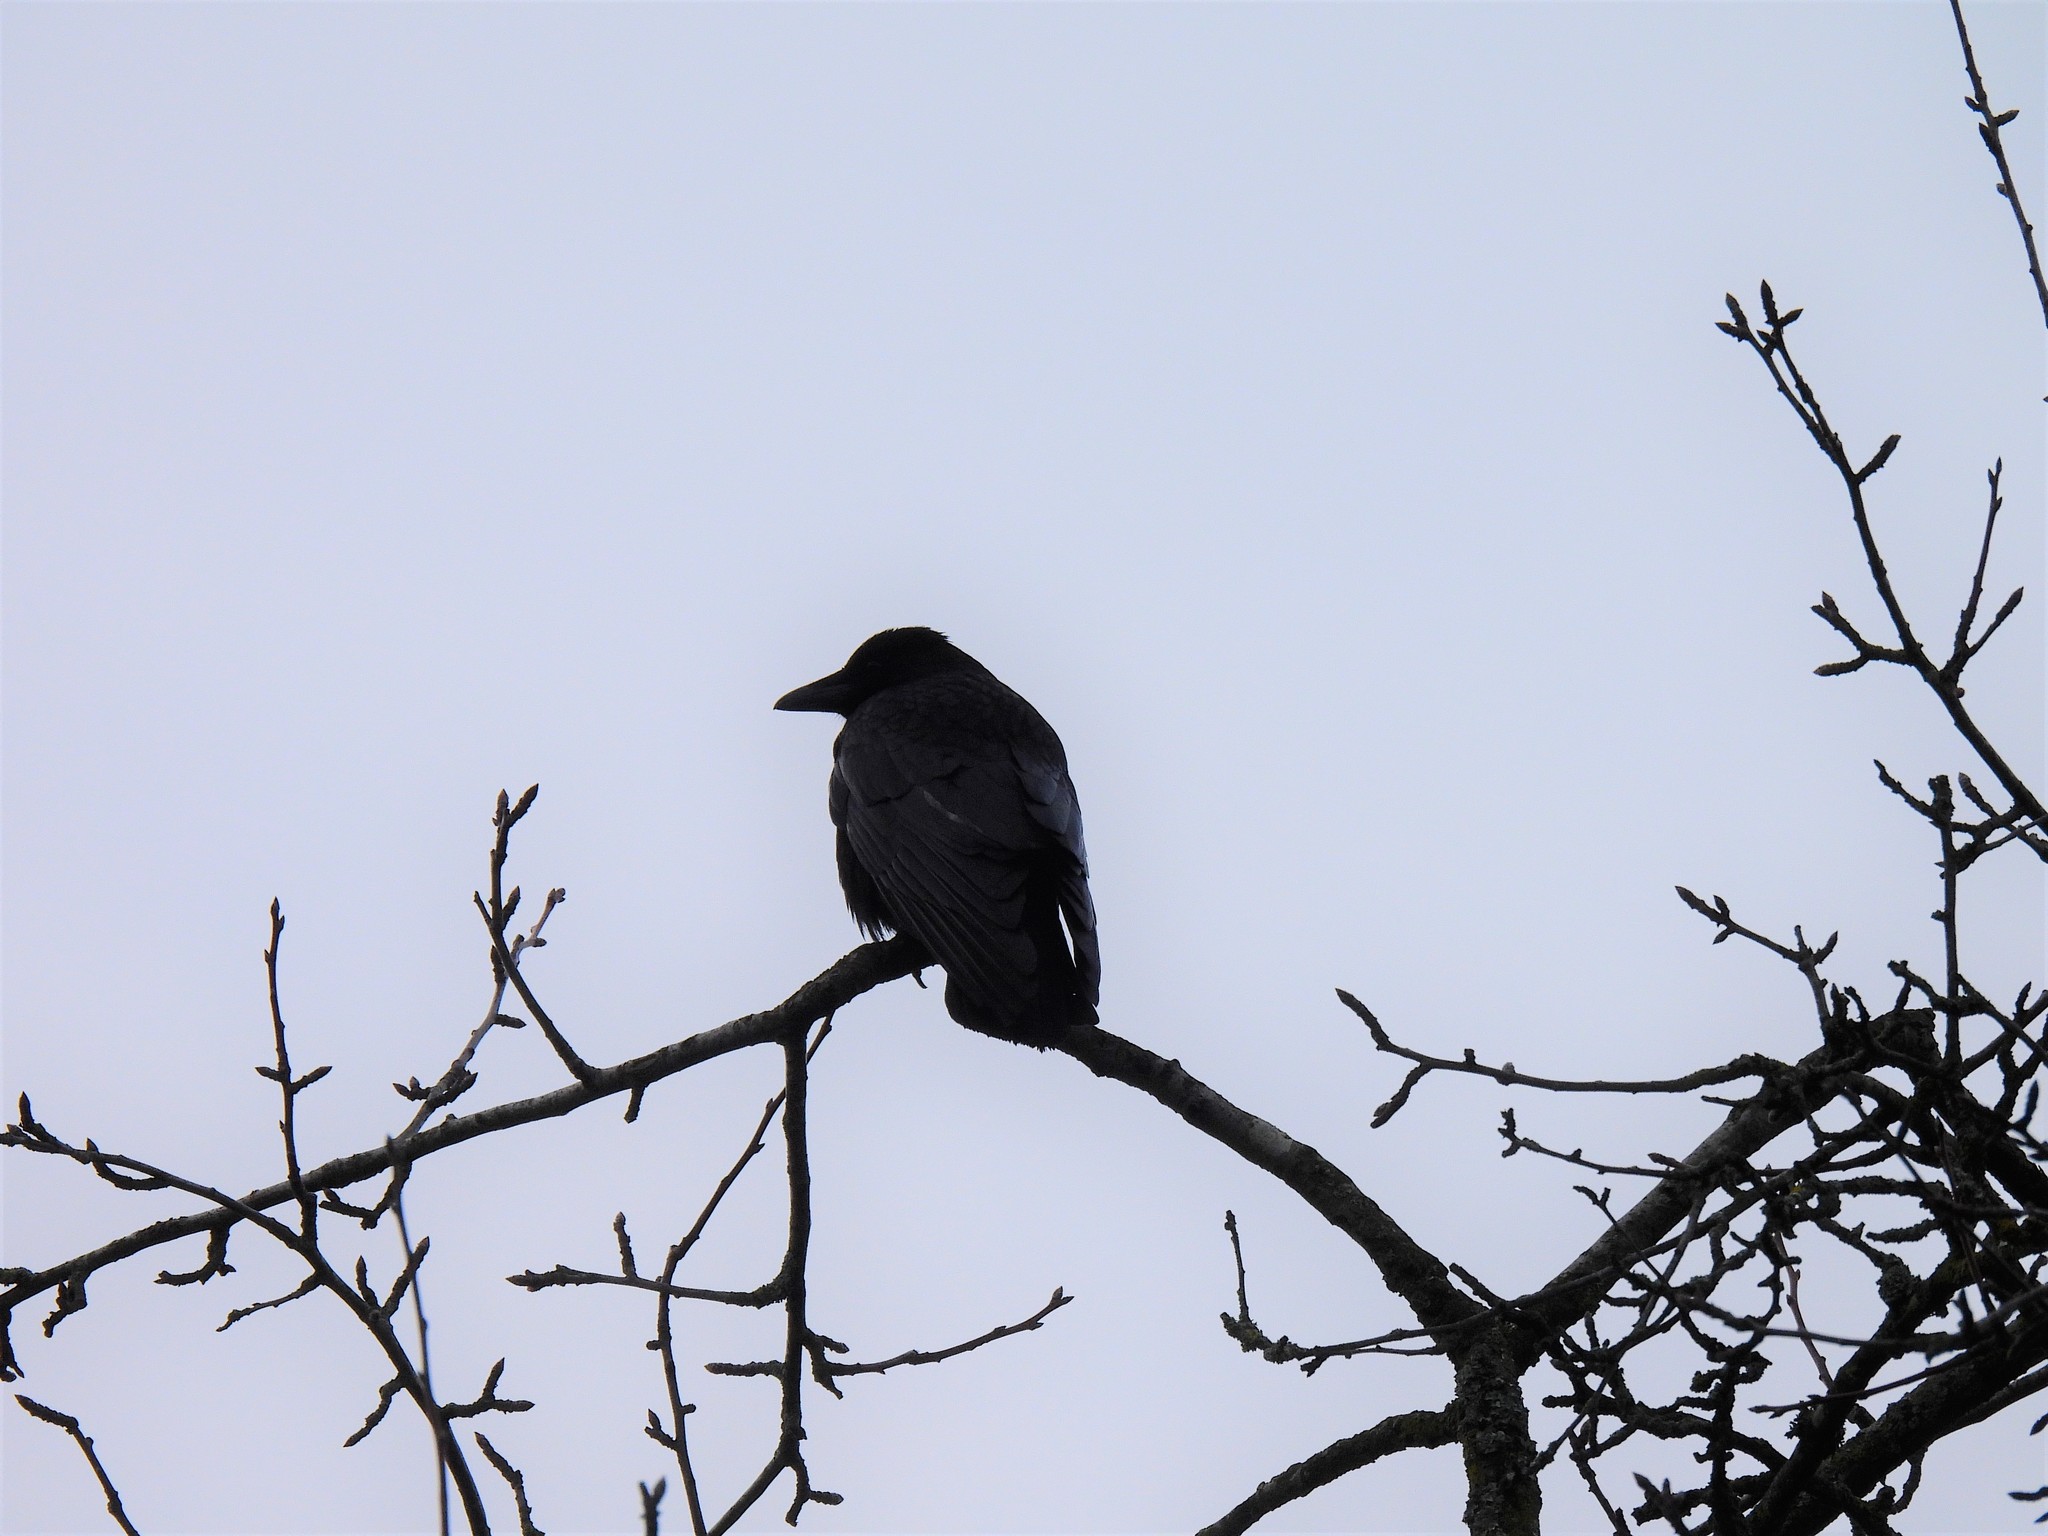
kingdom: Animalia
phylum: Chordata
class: Aves
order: Passeriformes
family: Corvidae
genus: Corvus
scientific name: Corvus corone
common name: Carrion crow
